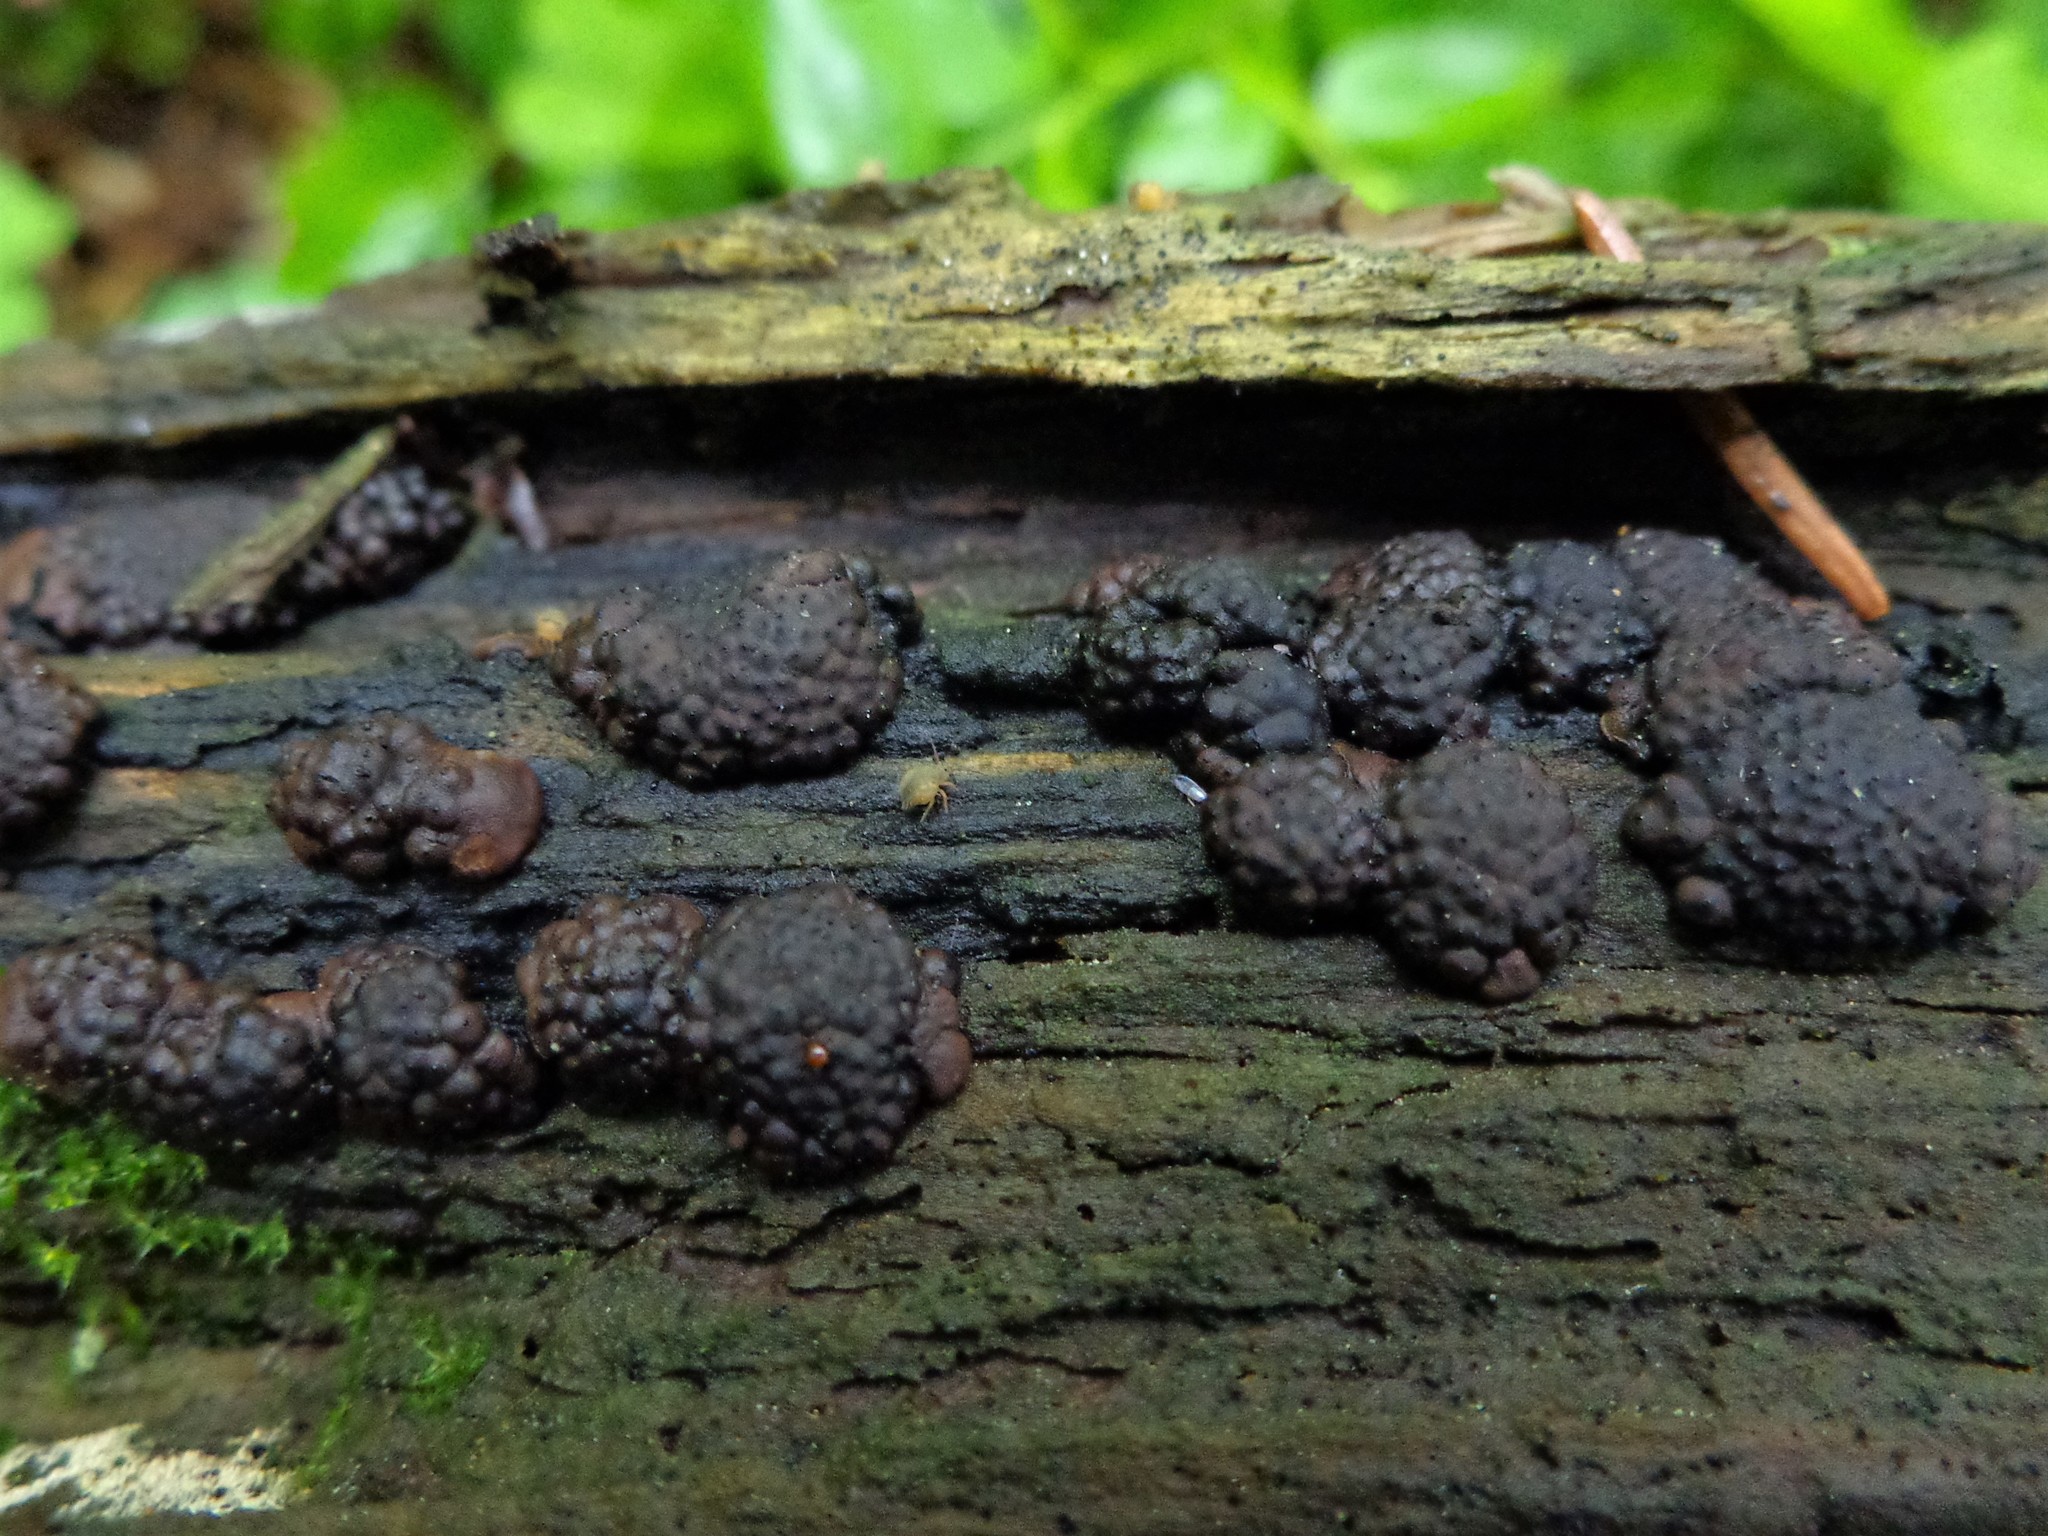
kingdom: Fungi
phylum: Ascomycota
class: Sordariomycetes
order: Xylariales
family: Hypoxylaceae
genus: Jackrogersella
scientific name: Jackrogersella multiformis
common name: Birch woodwart
